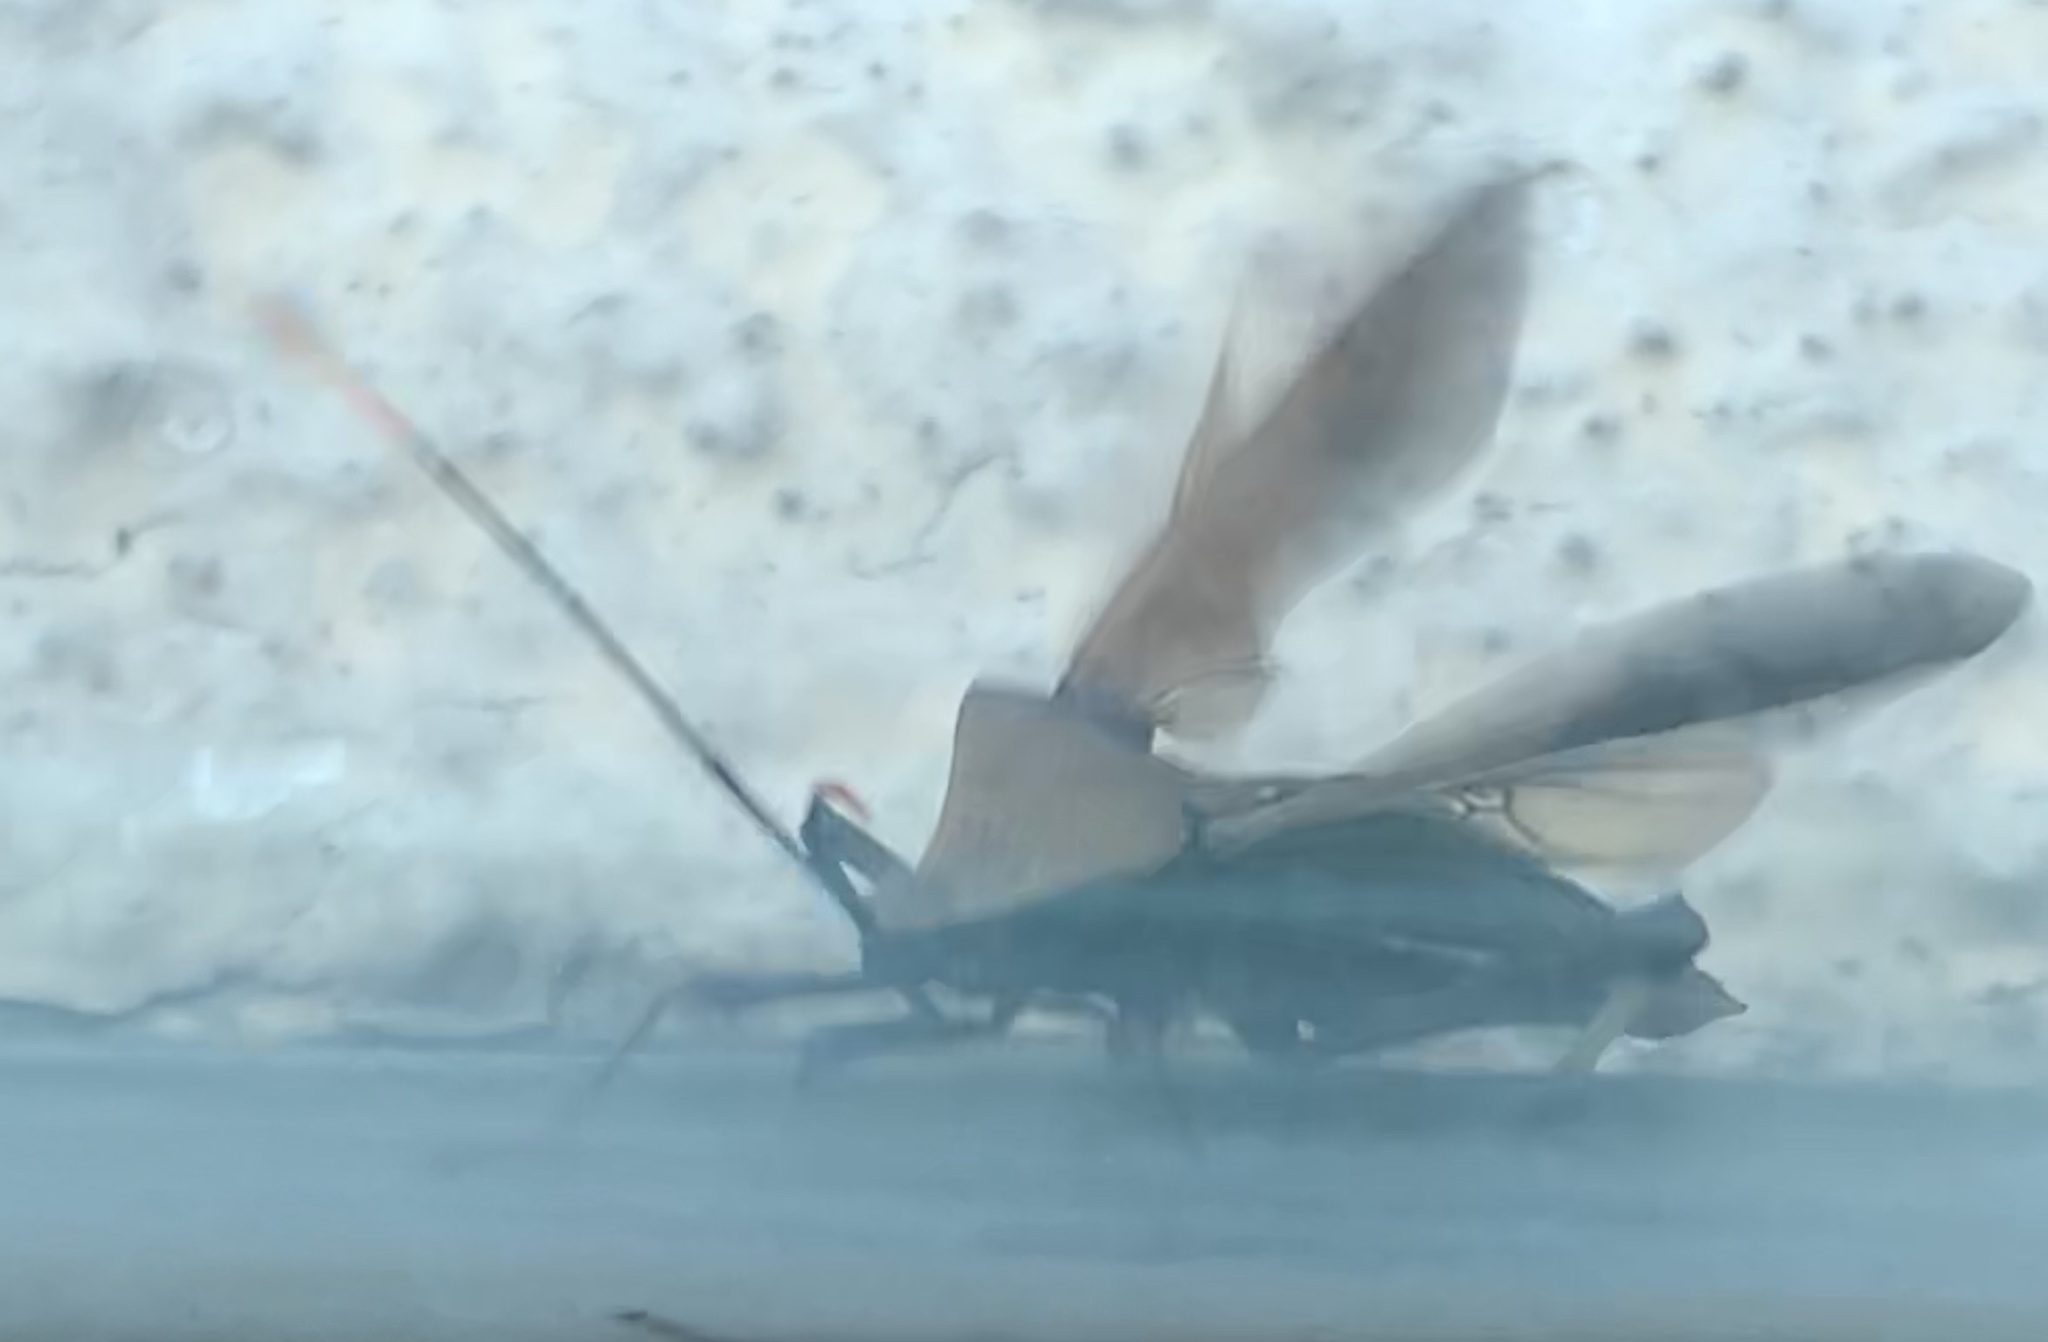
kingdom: Animalia
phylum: Arthropoda
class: Insecta
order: Hemiptera
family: Coreidae
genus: Mictis
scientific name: Mictis serina
